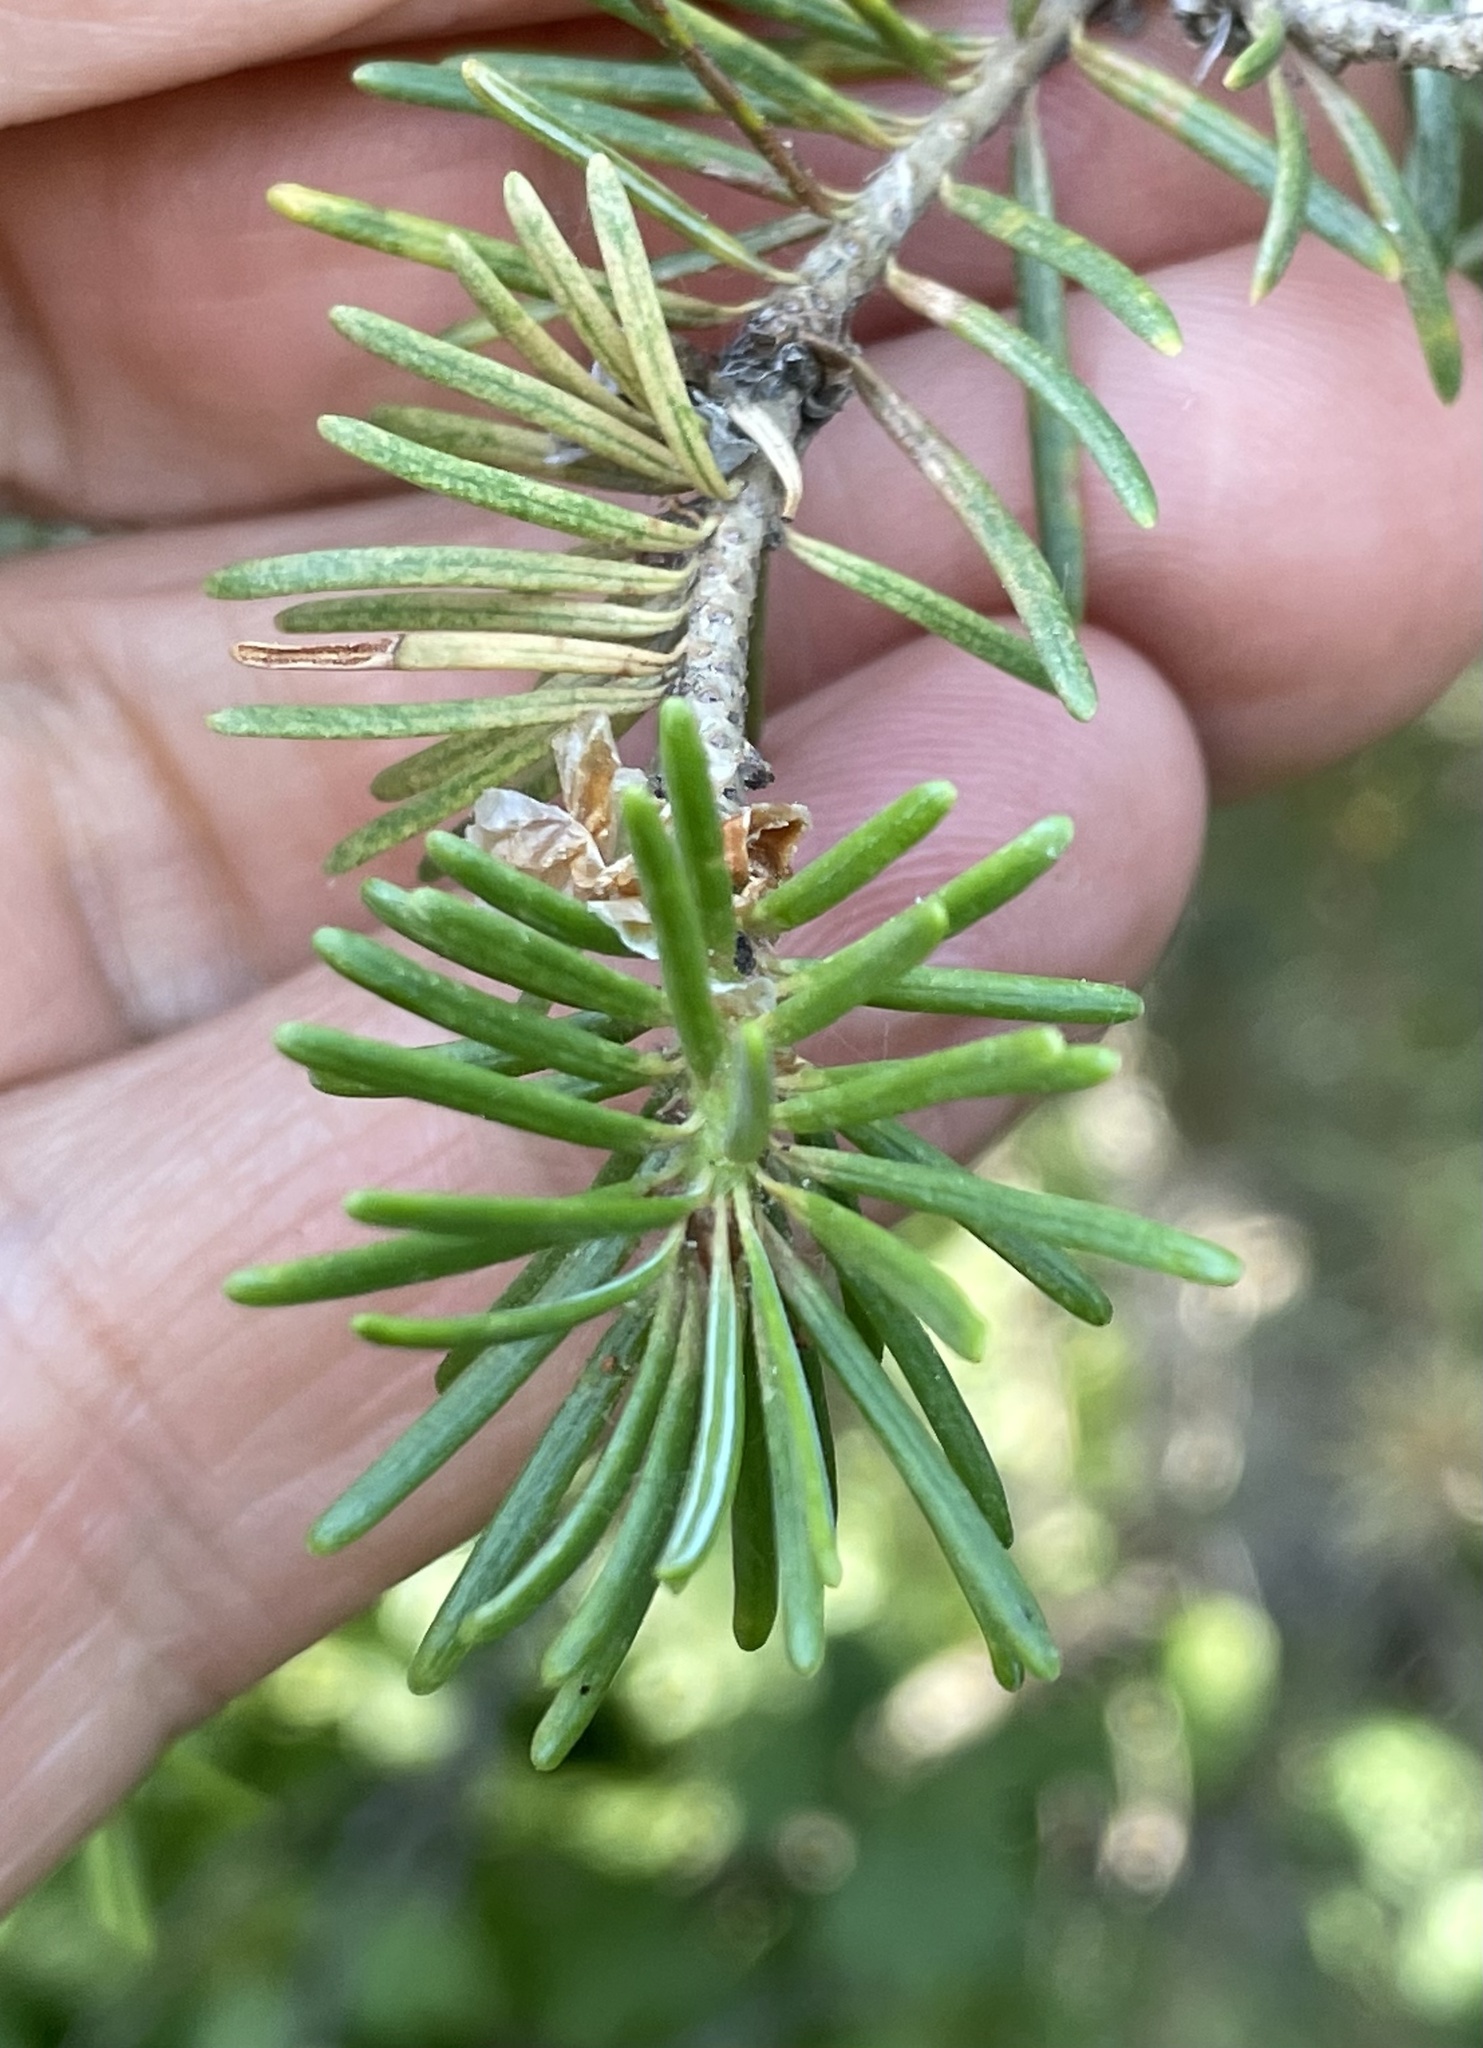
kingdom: Plantae
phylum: Tracheophyta
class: Pinopsida
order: Pinales
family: Pinaceae
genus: Pseudotsuga
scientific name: Pseudotsuga menziesii
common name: Douglas fir
